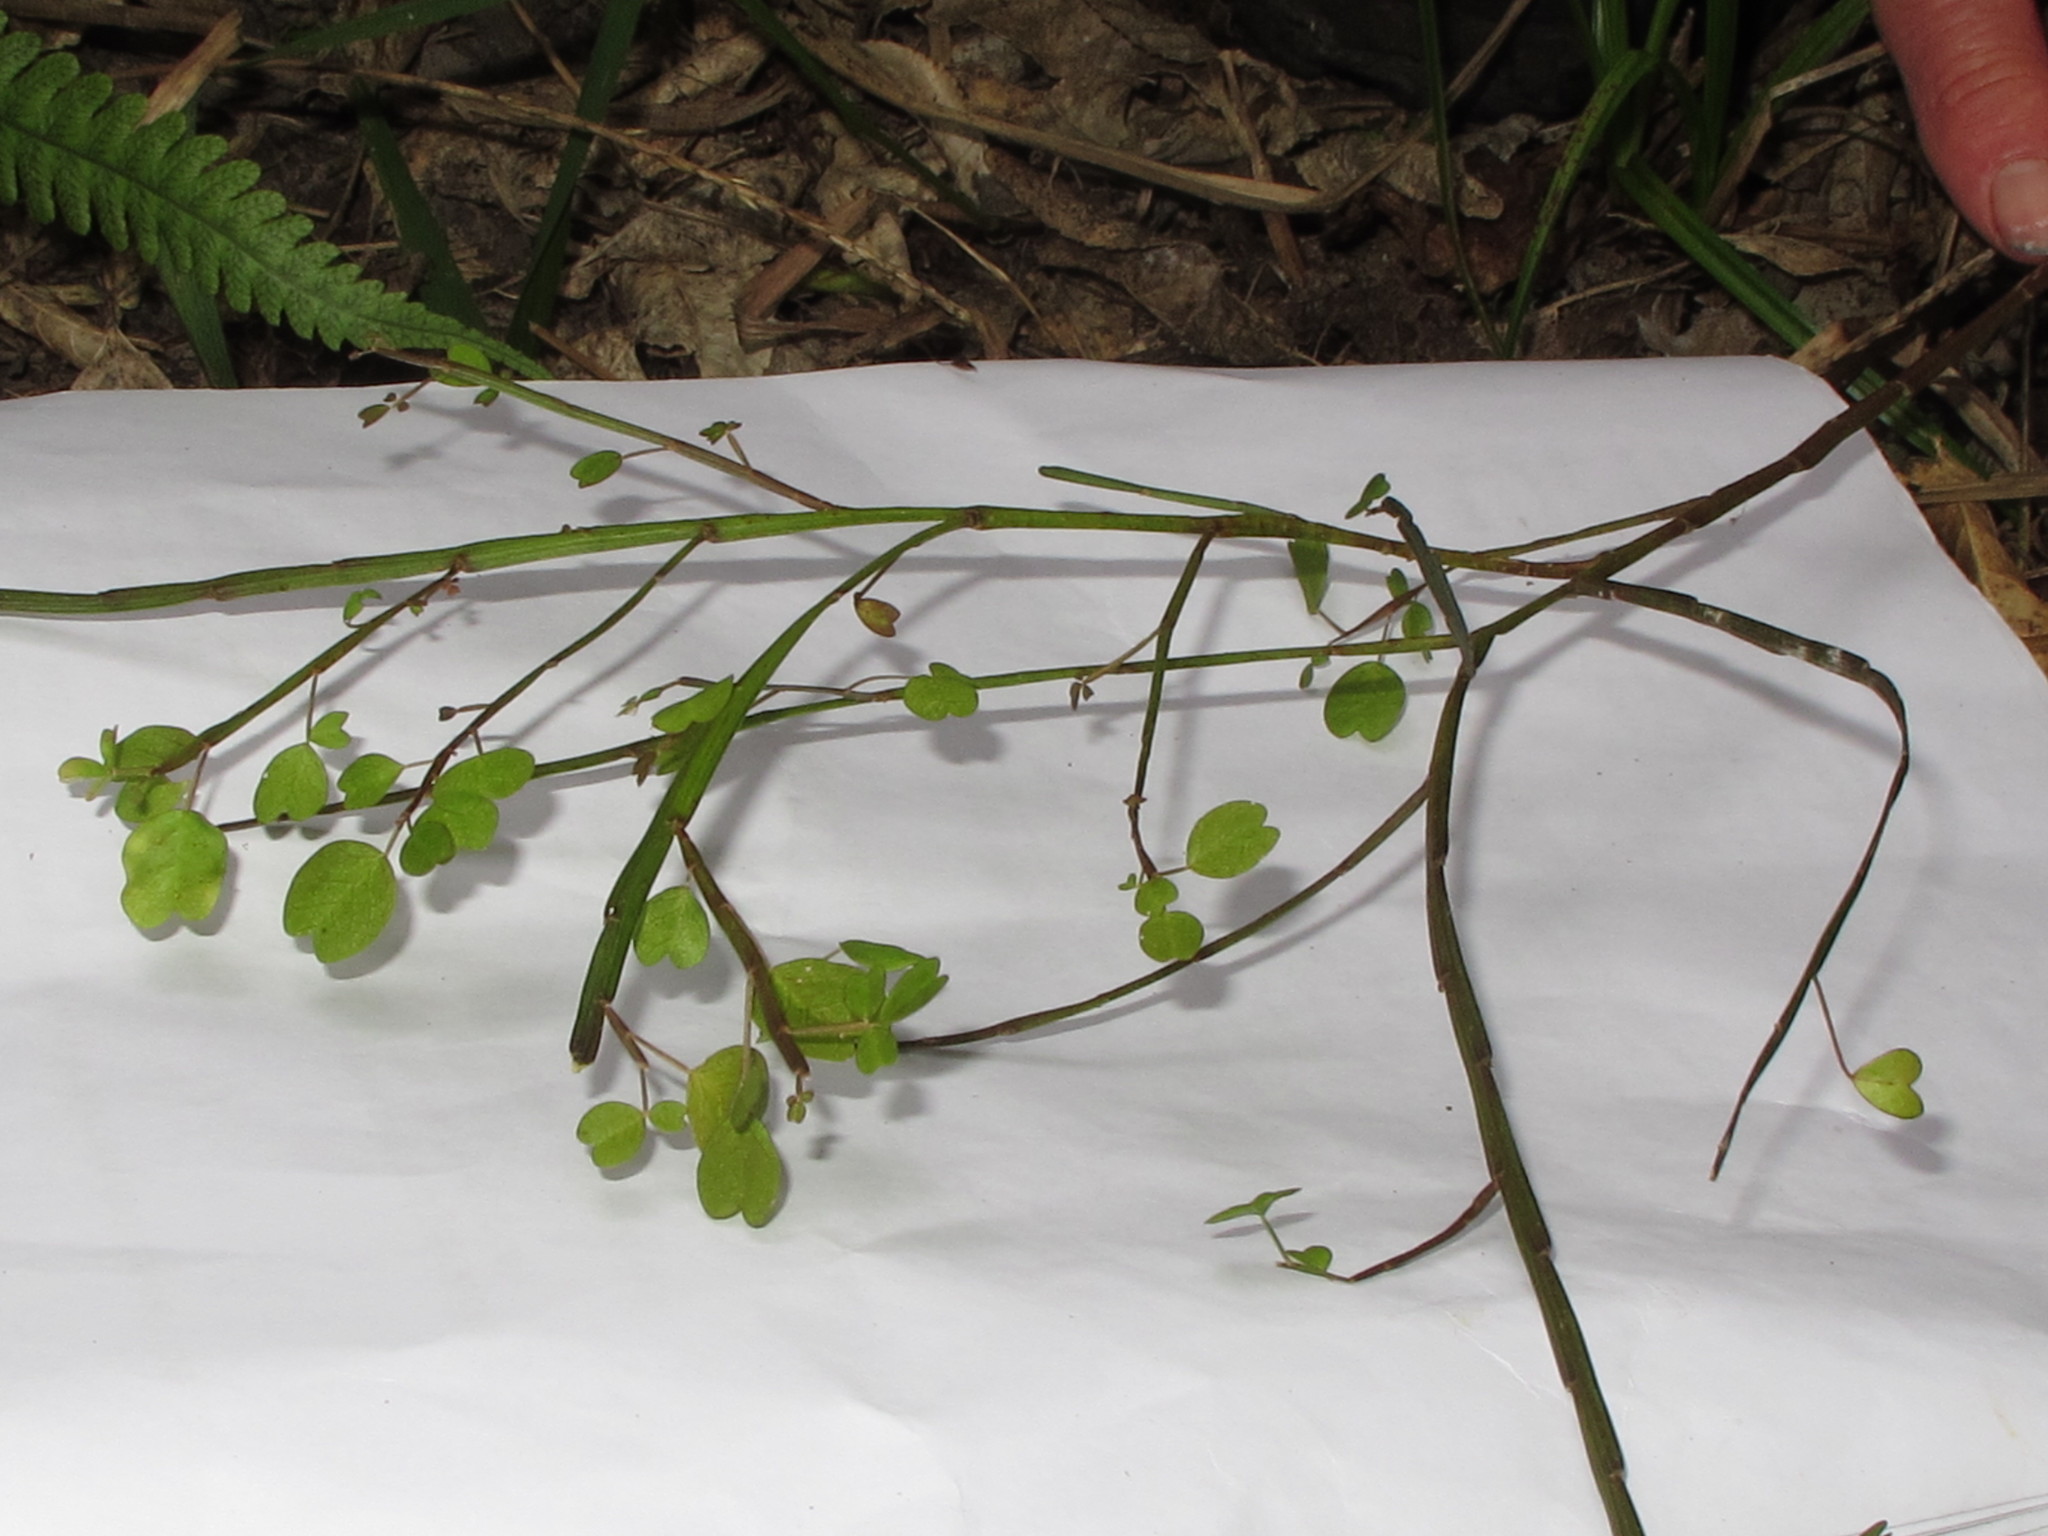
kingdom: Plantae
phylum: Tracheophyta
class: Magnoliopsida
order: Fabales
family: Fabaceae
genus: Carmichaelia
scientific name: Carmichaelia australis
